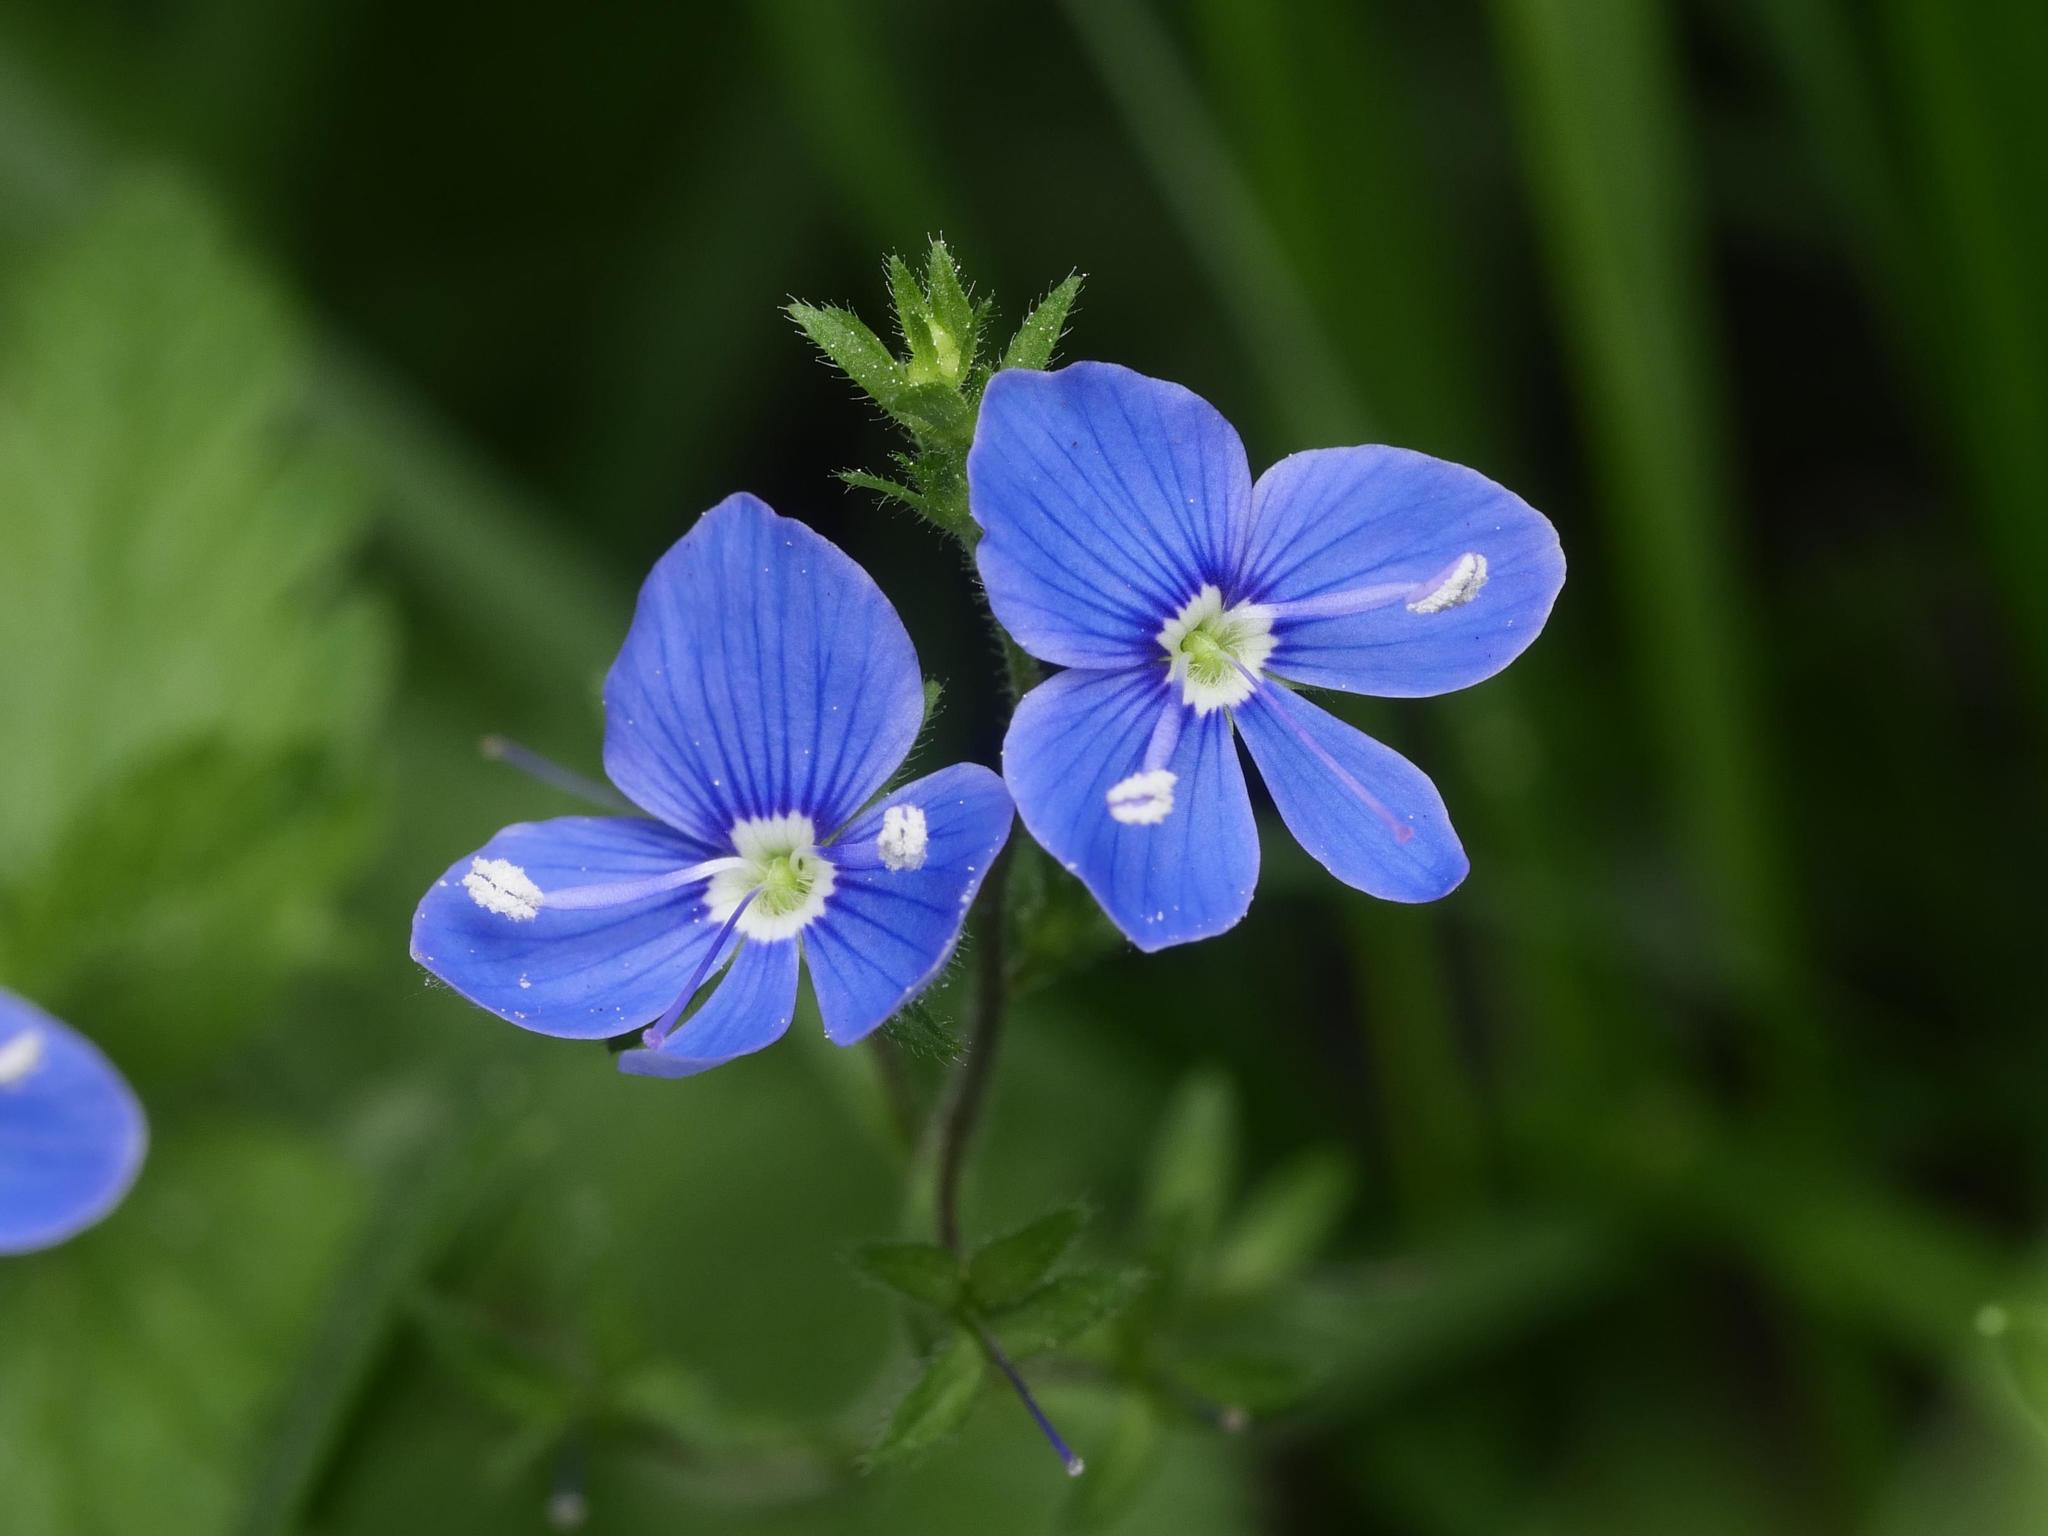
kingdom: Plantae
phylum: Tracheophyta
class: Magnoliopsida
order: Lamiales
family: Plantaginaceae
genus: Veronica
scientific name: Veronica chamaedrys
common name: Germander speedwell
